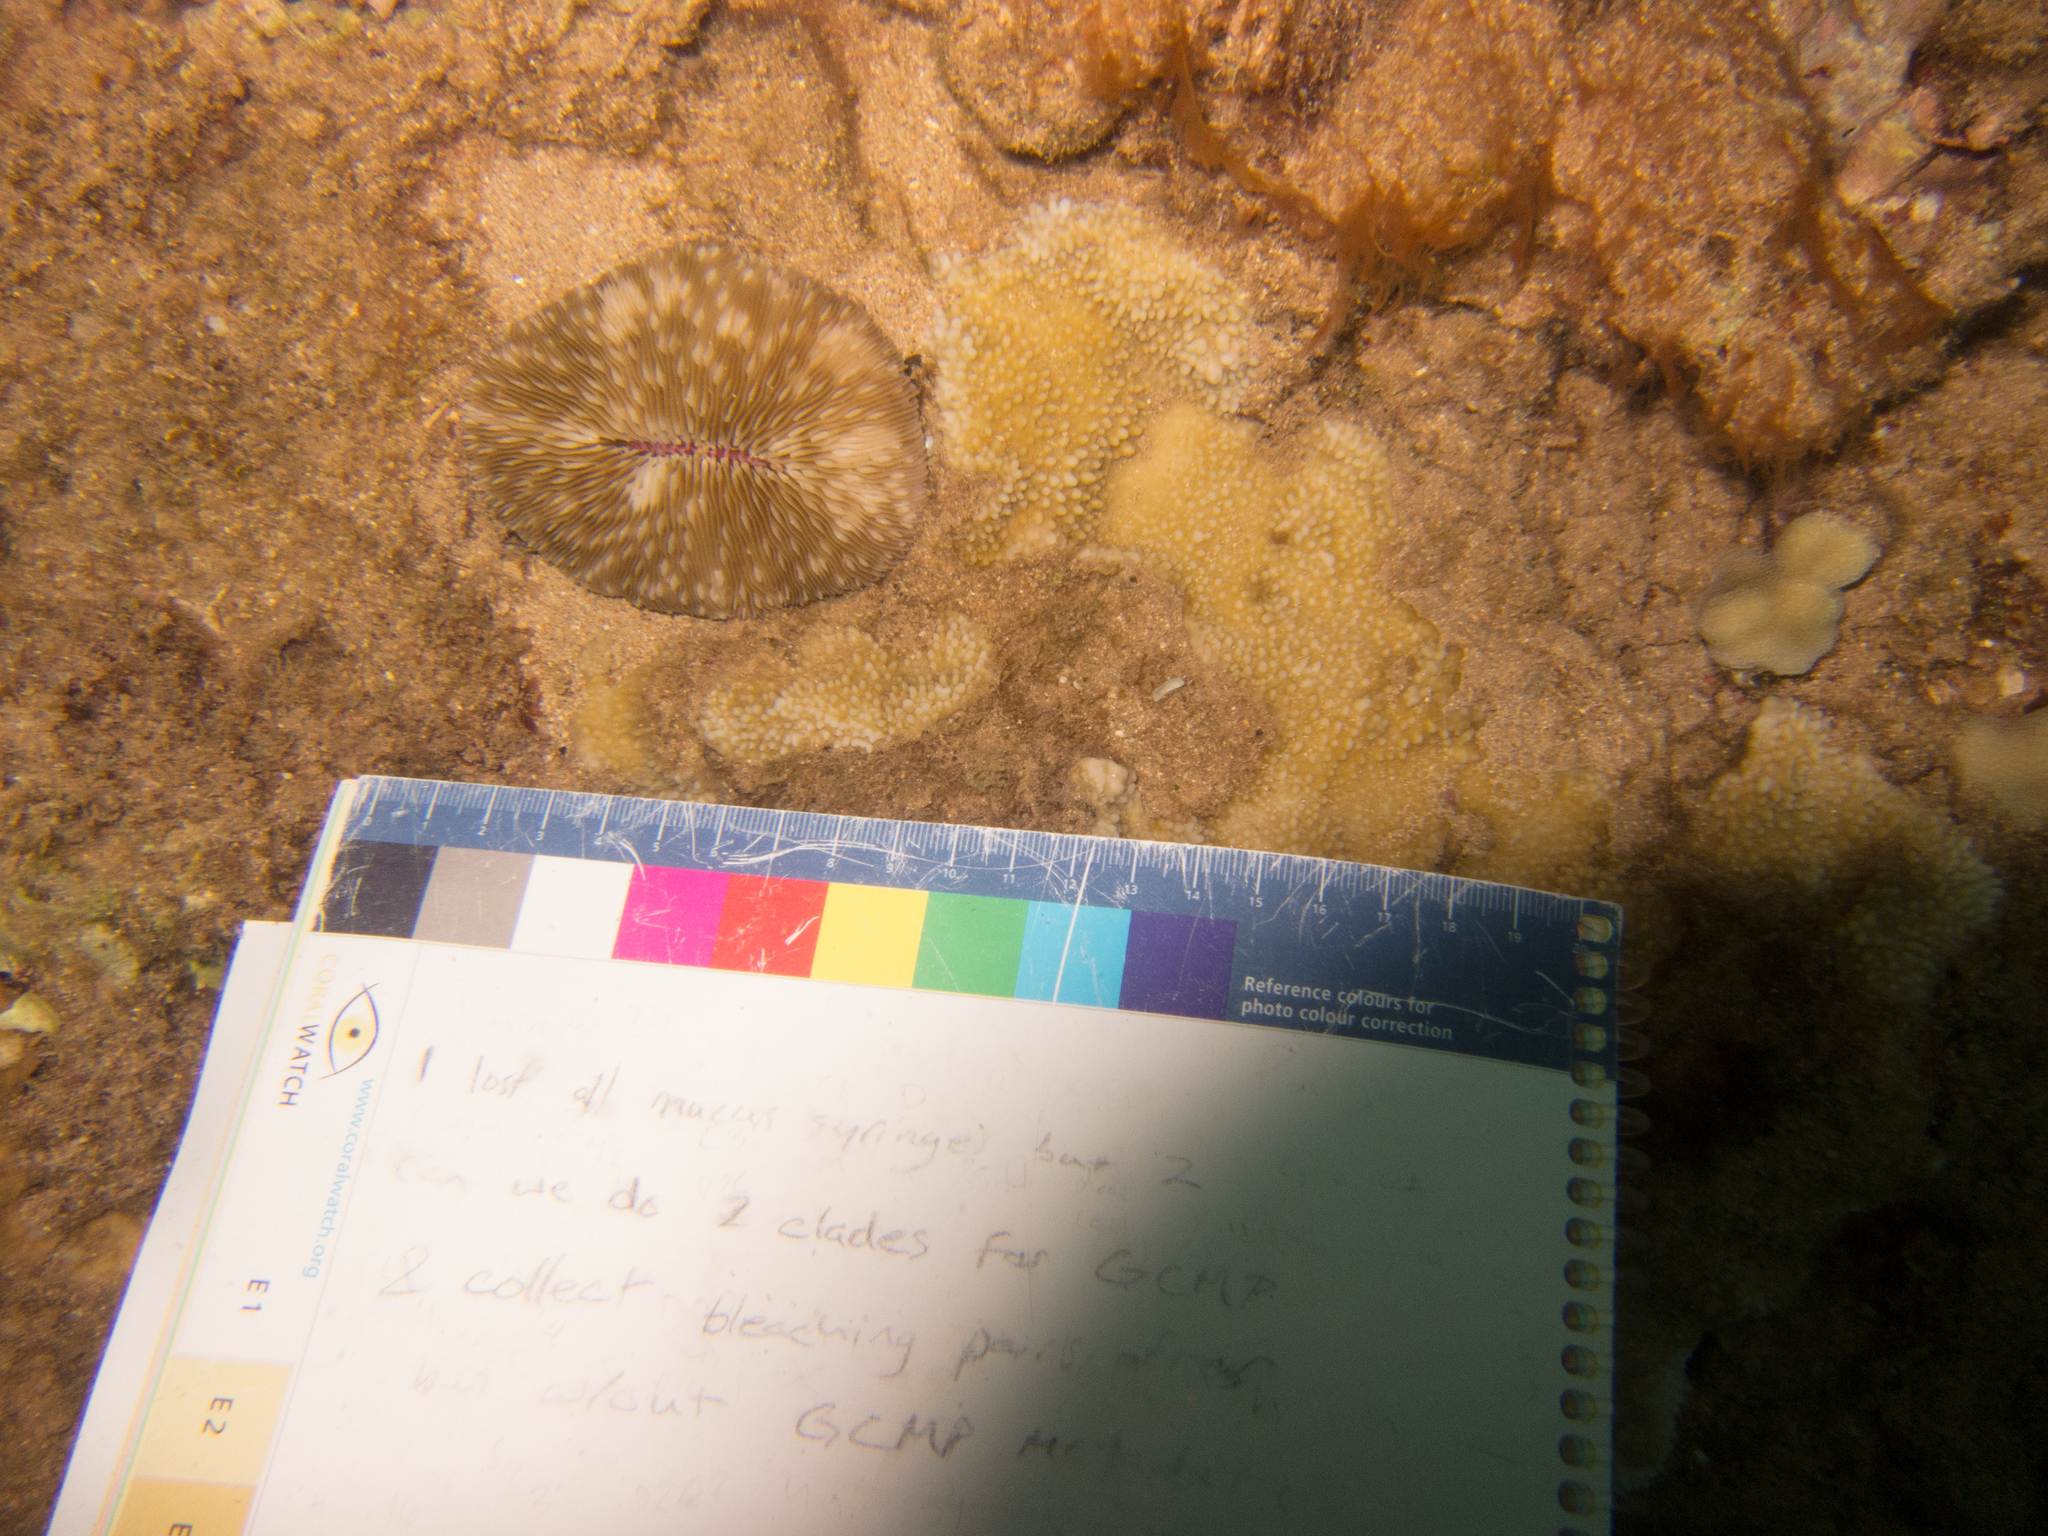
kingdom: Animalia
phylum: Cnidaria
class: Anthozoa
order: Scleractinia
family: Fungiidae
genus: Lobactis
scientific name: Lobactis scutaria
